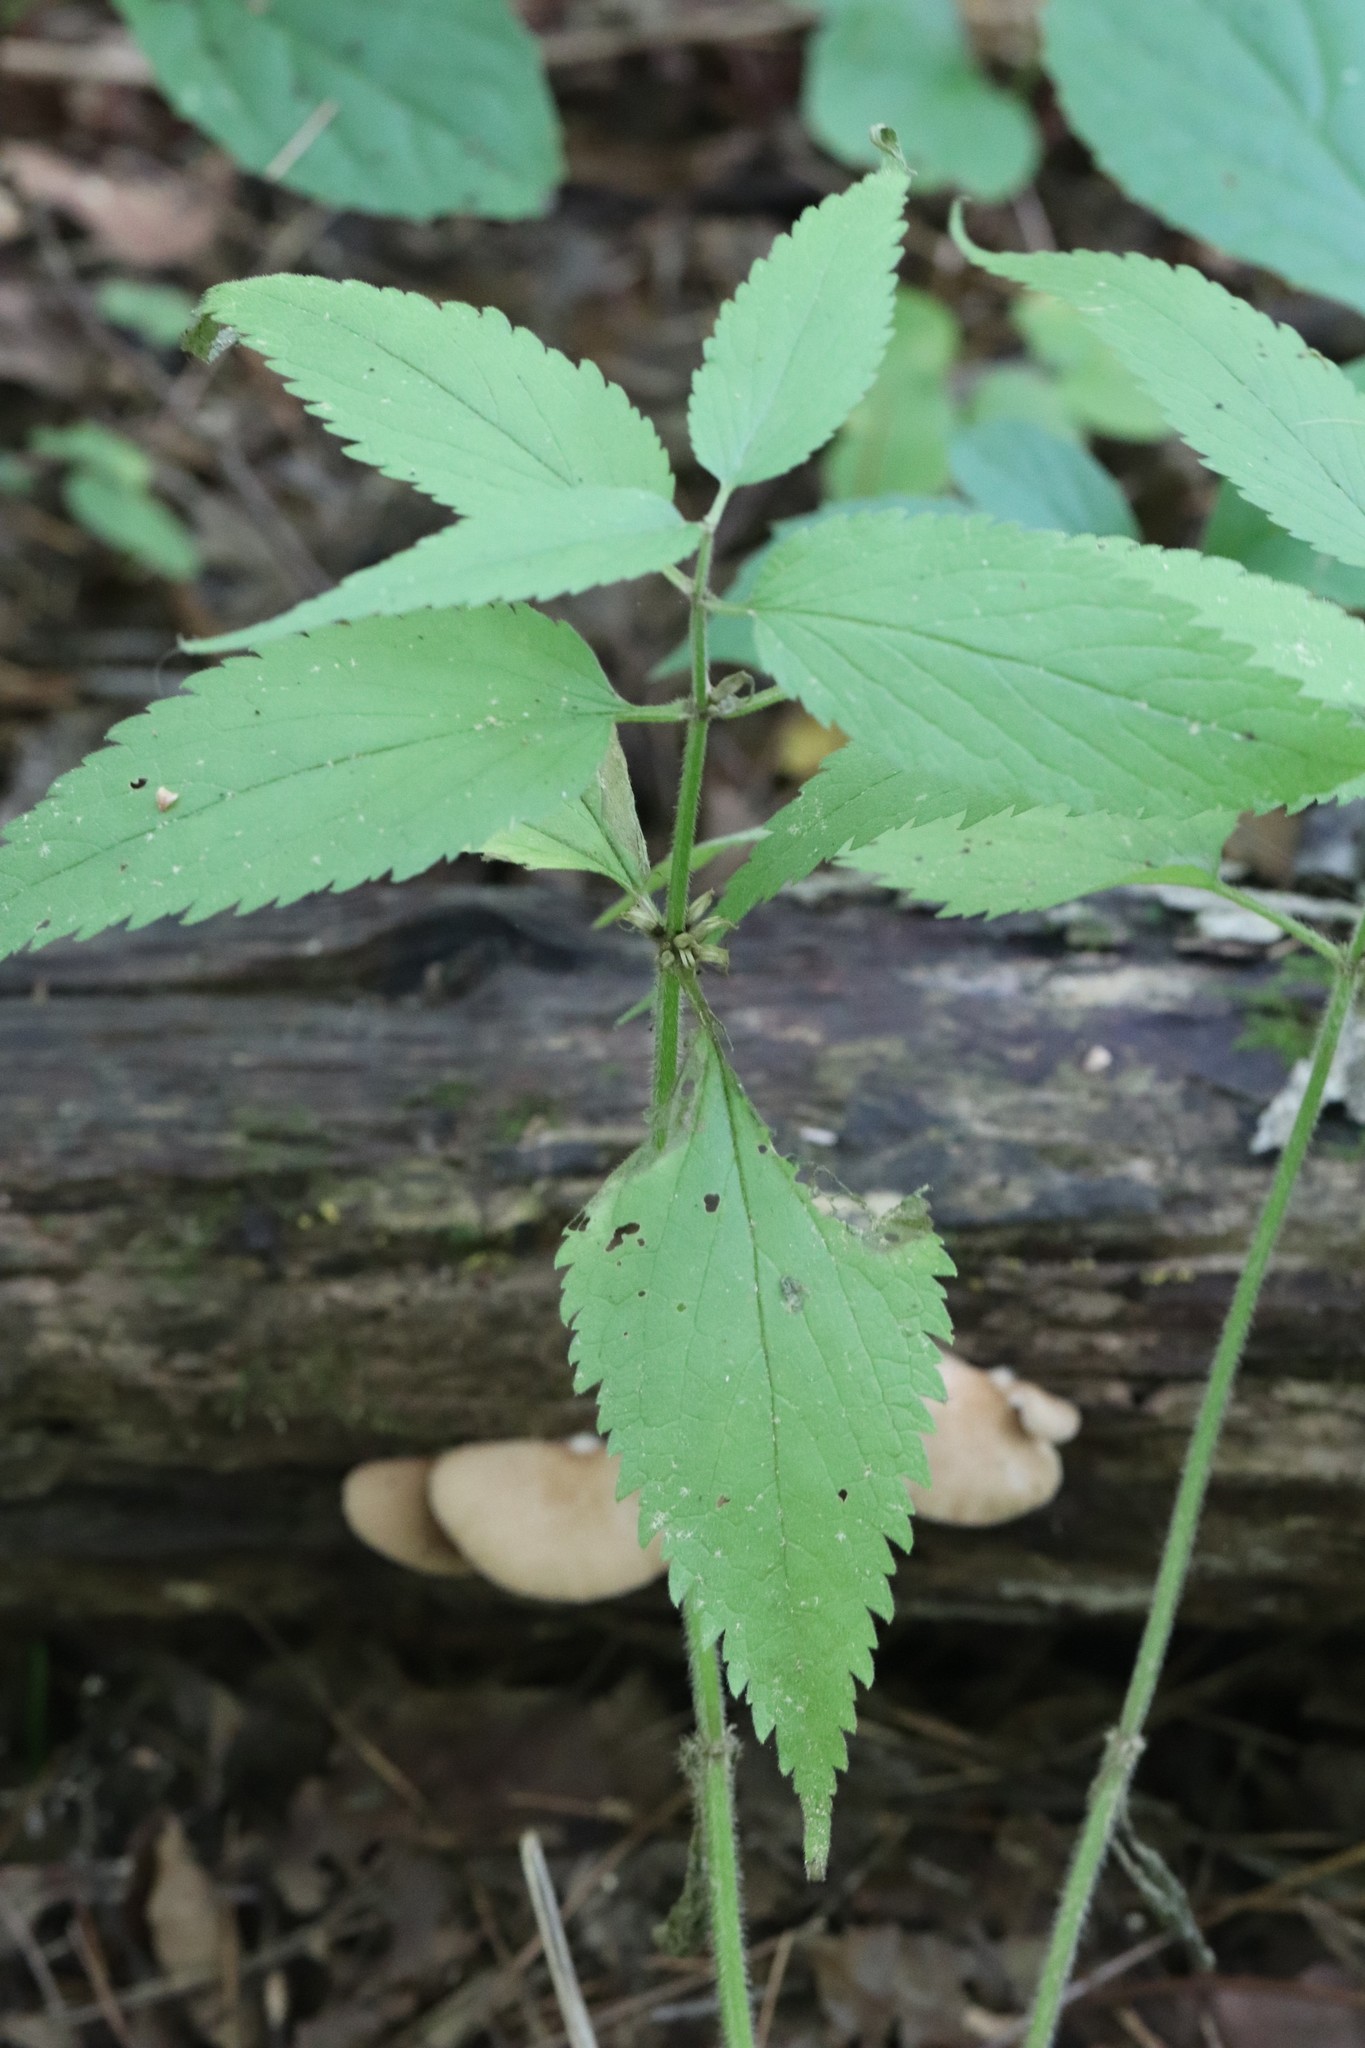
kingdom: Plantae
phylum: Tracheophyta
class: Magnoliopsida
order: Lamiales
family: Lamiaceae
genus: Lamium
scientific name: Lamium album
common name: White dead-nettle
